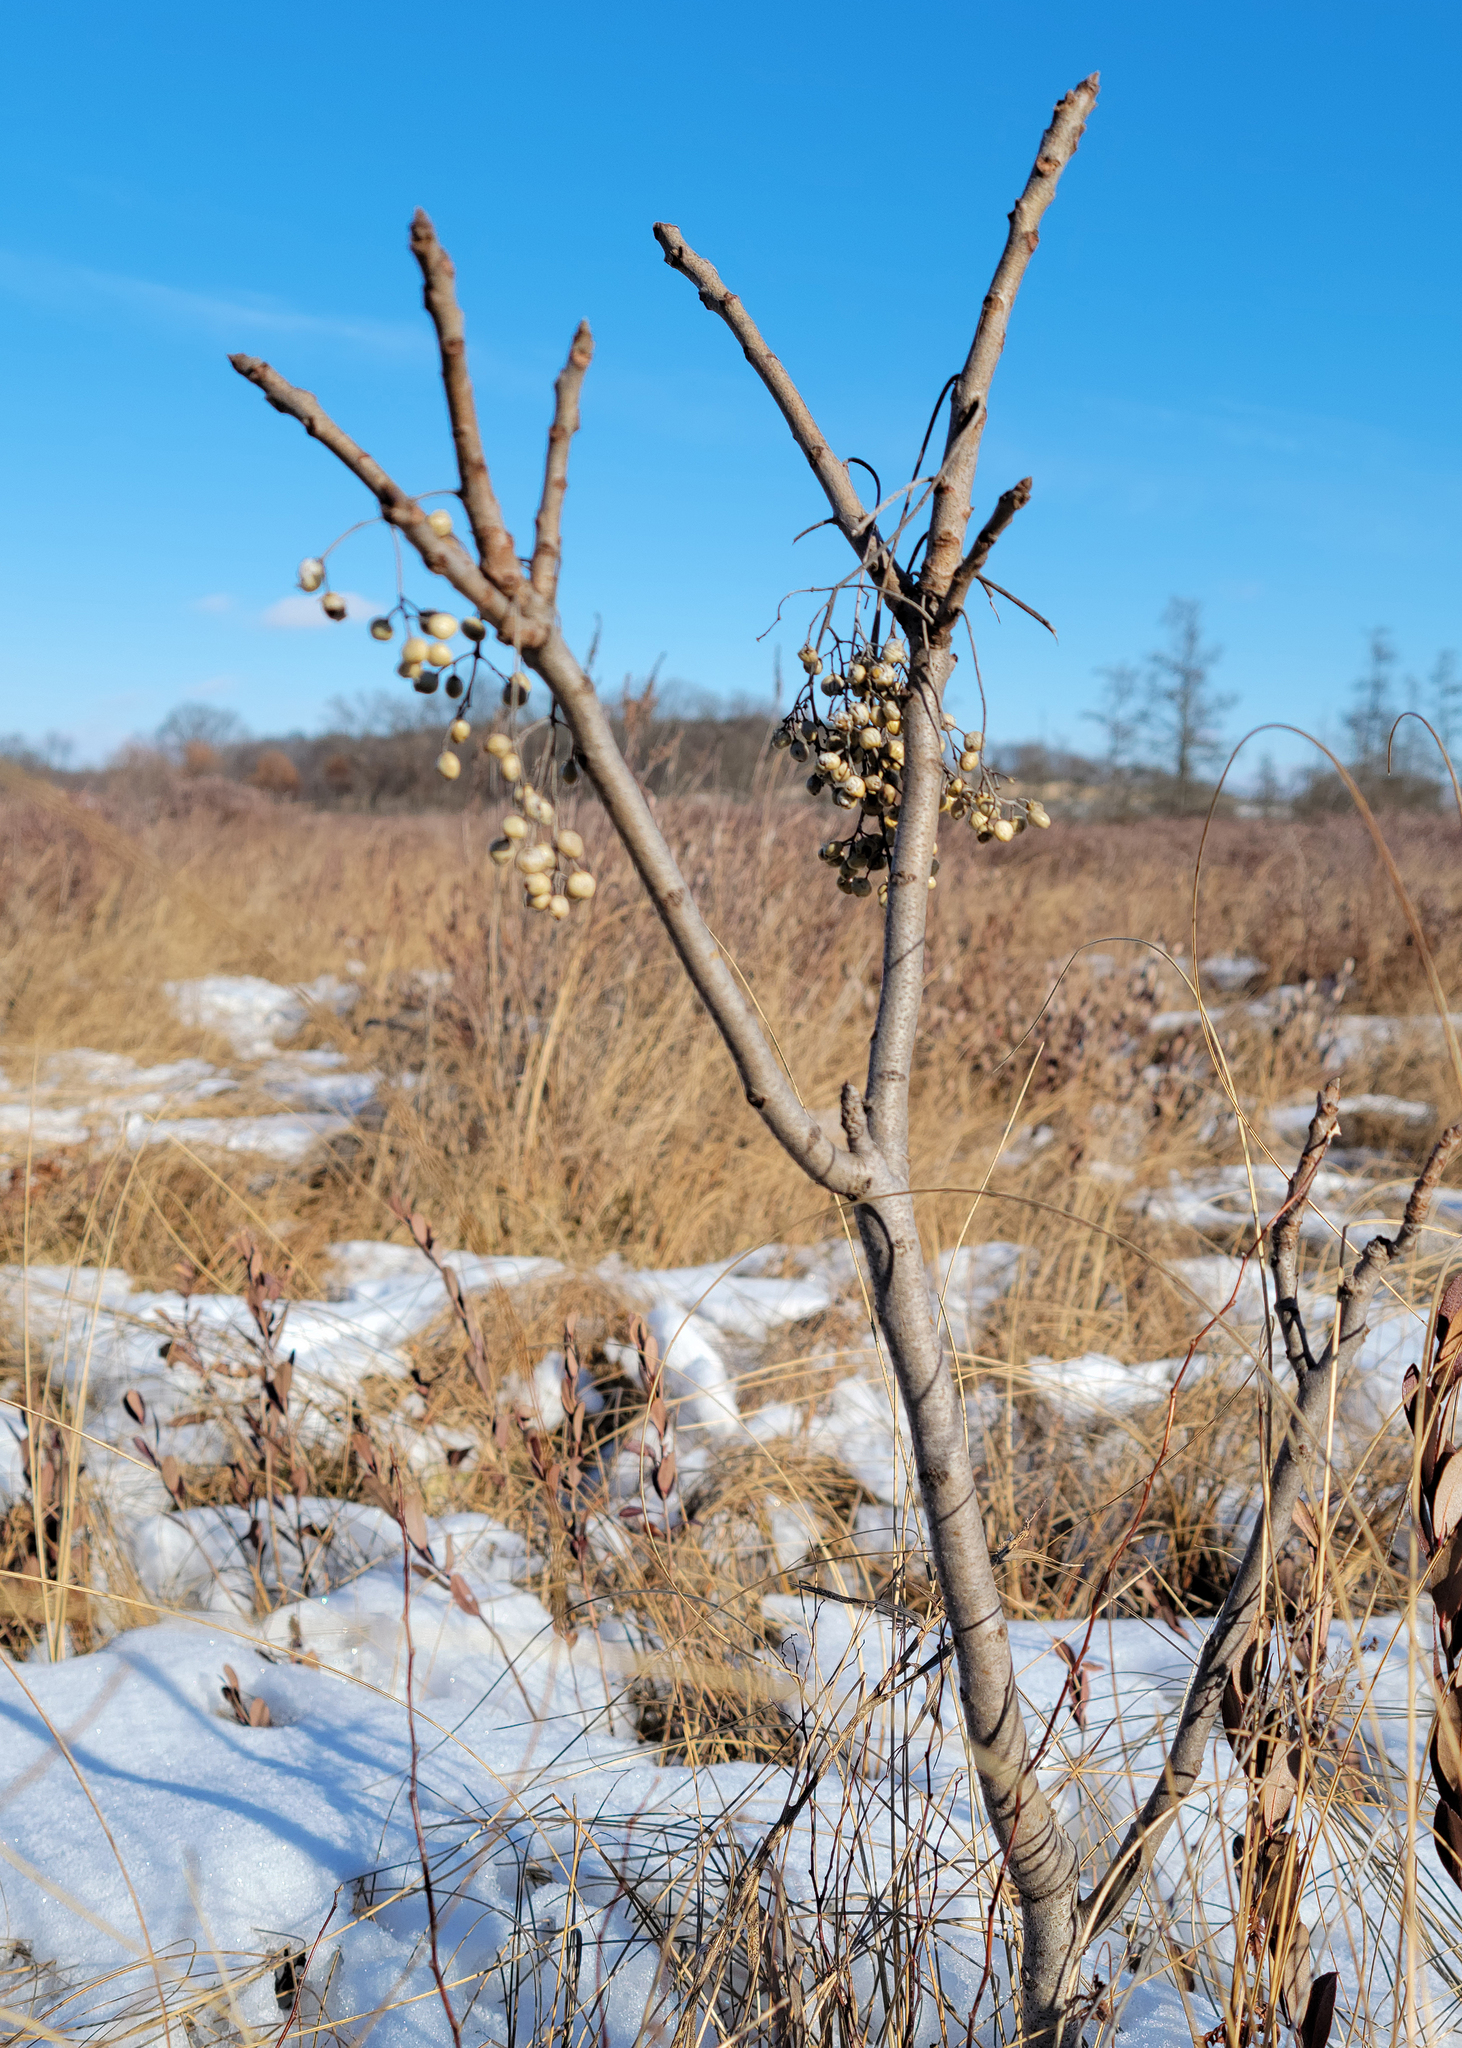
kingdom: Plantae
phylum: Tracheophyta
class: Magnoliopsida
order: Sapindales
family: Anacardiaceae
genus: Toxicodendron
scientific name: Toxicodendron vernix
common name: Poison sumac
